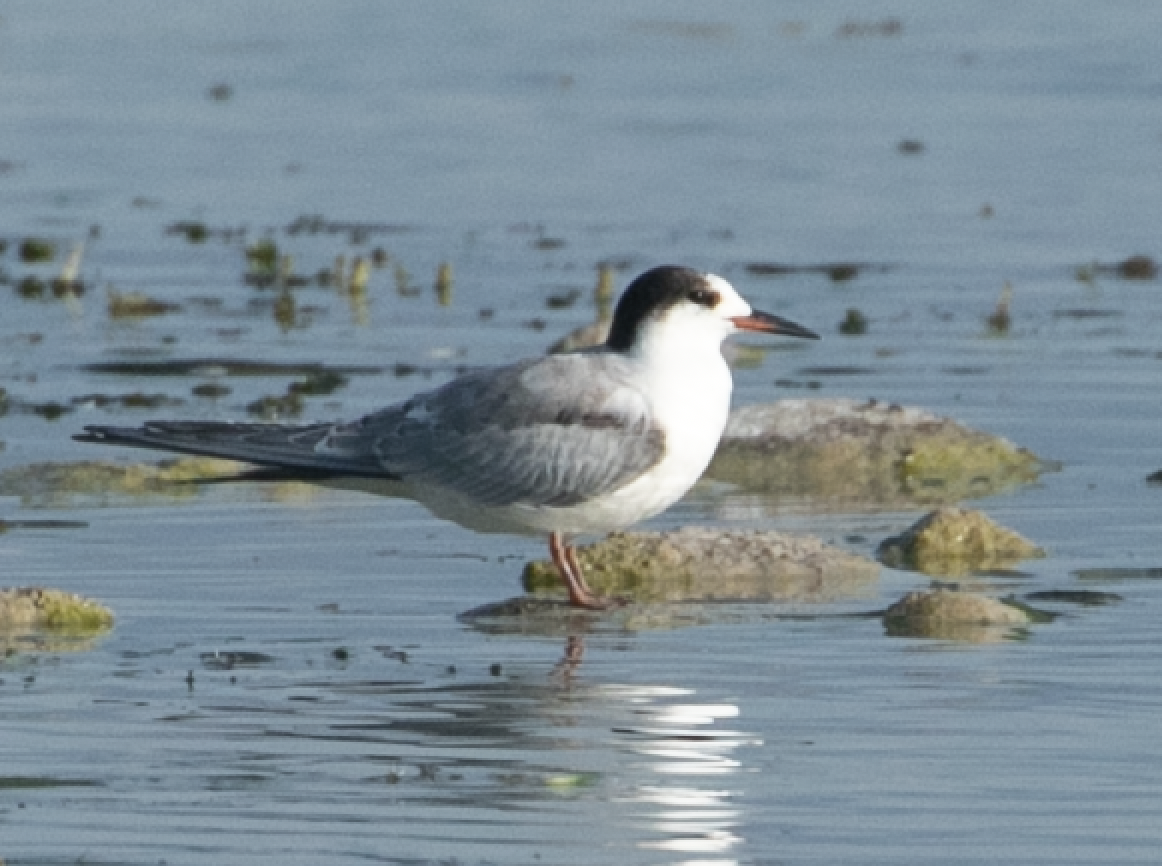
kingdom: Animalia
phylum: Chordata
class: Aves
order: Charadriiformes
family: Laridae
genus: Sterna
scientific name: Sterna hirundo
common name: Common tern
